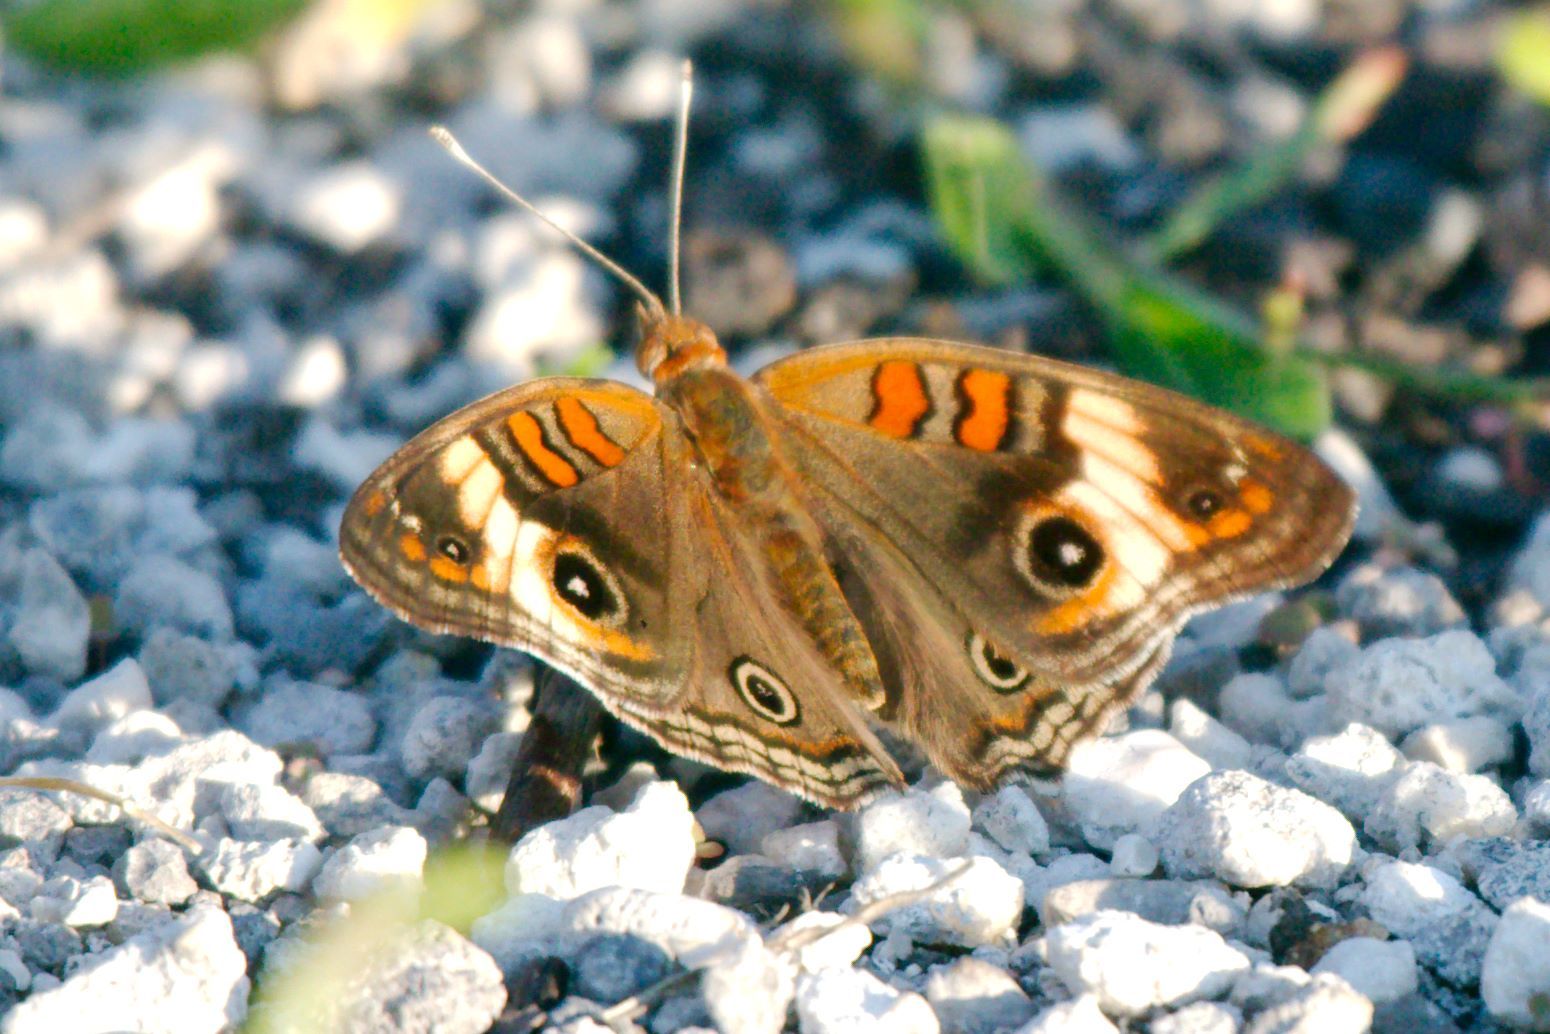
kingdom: Animalia
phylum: Arthropoda
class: Insecta
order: Lepidoptera
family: Nymphalidae
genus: Junonia
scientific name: Junonia lavinia
